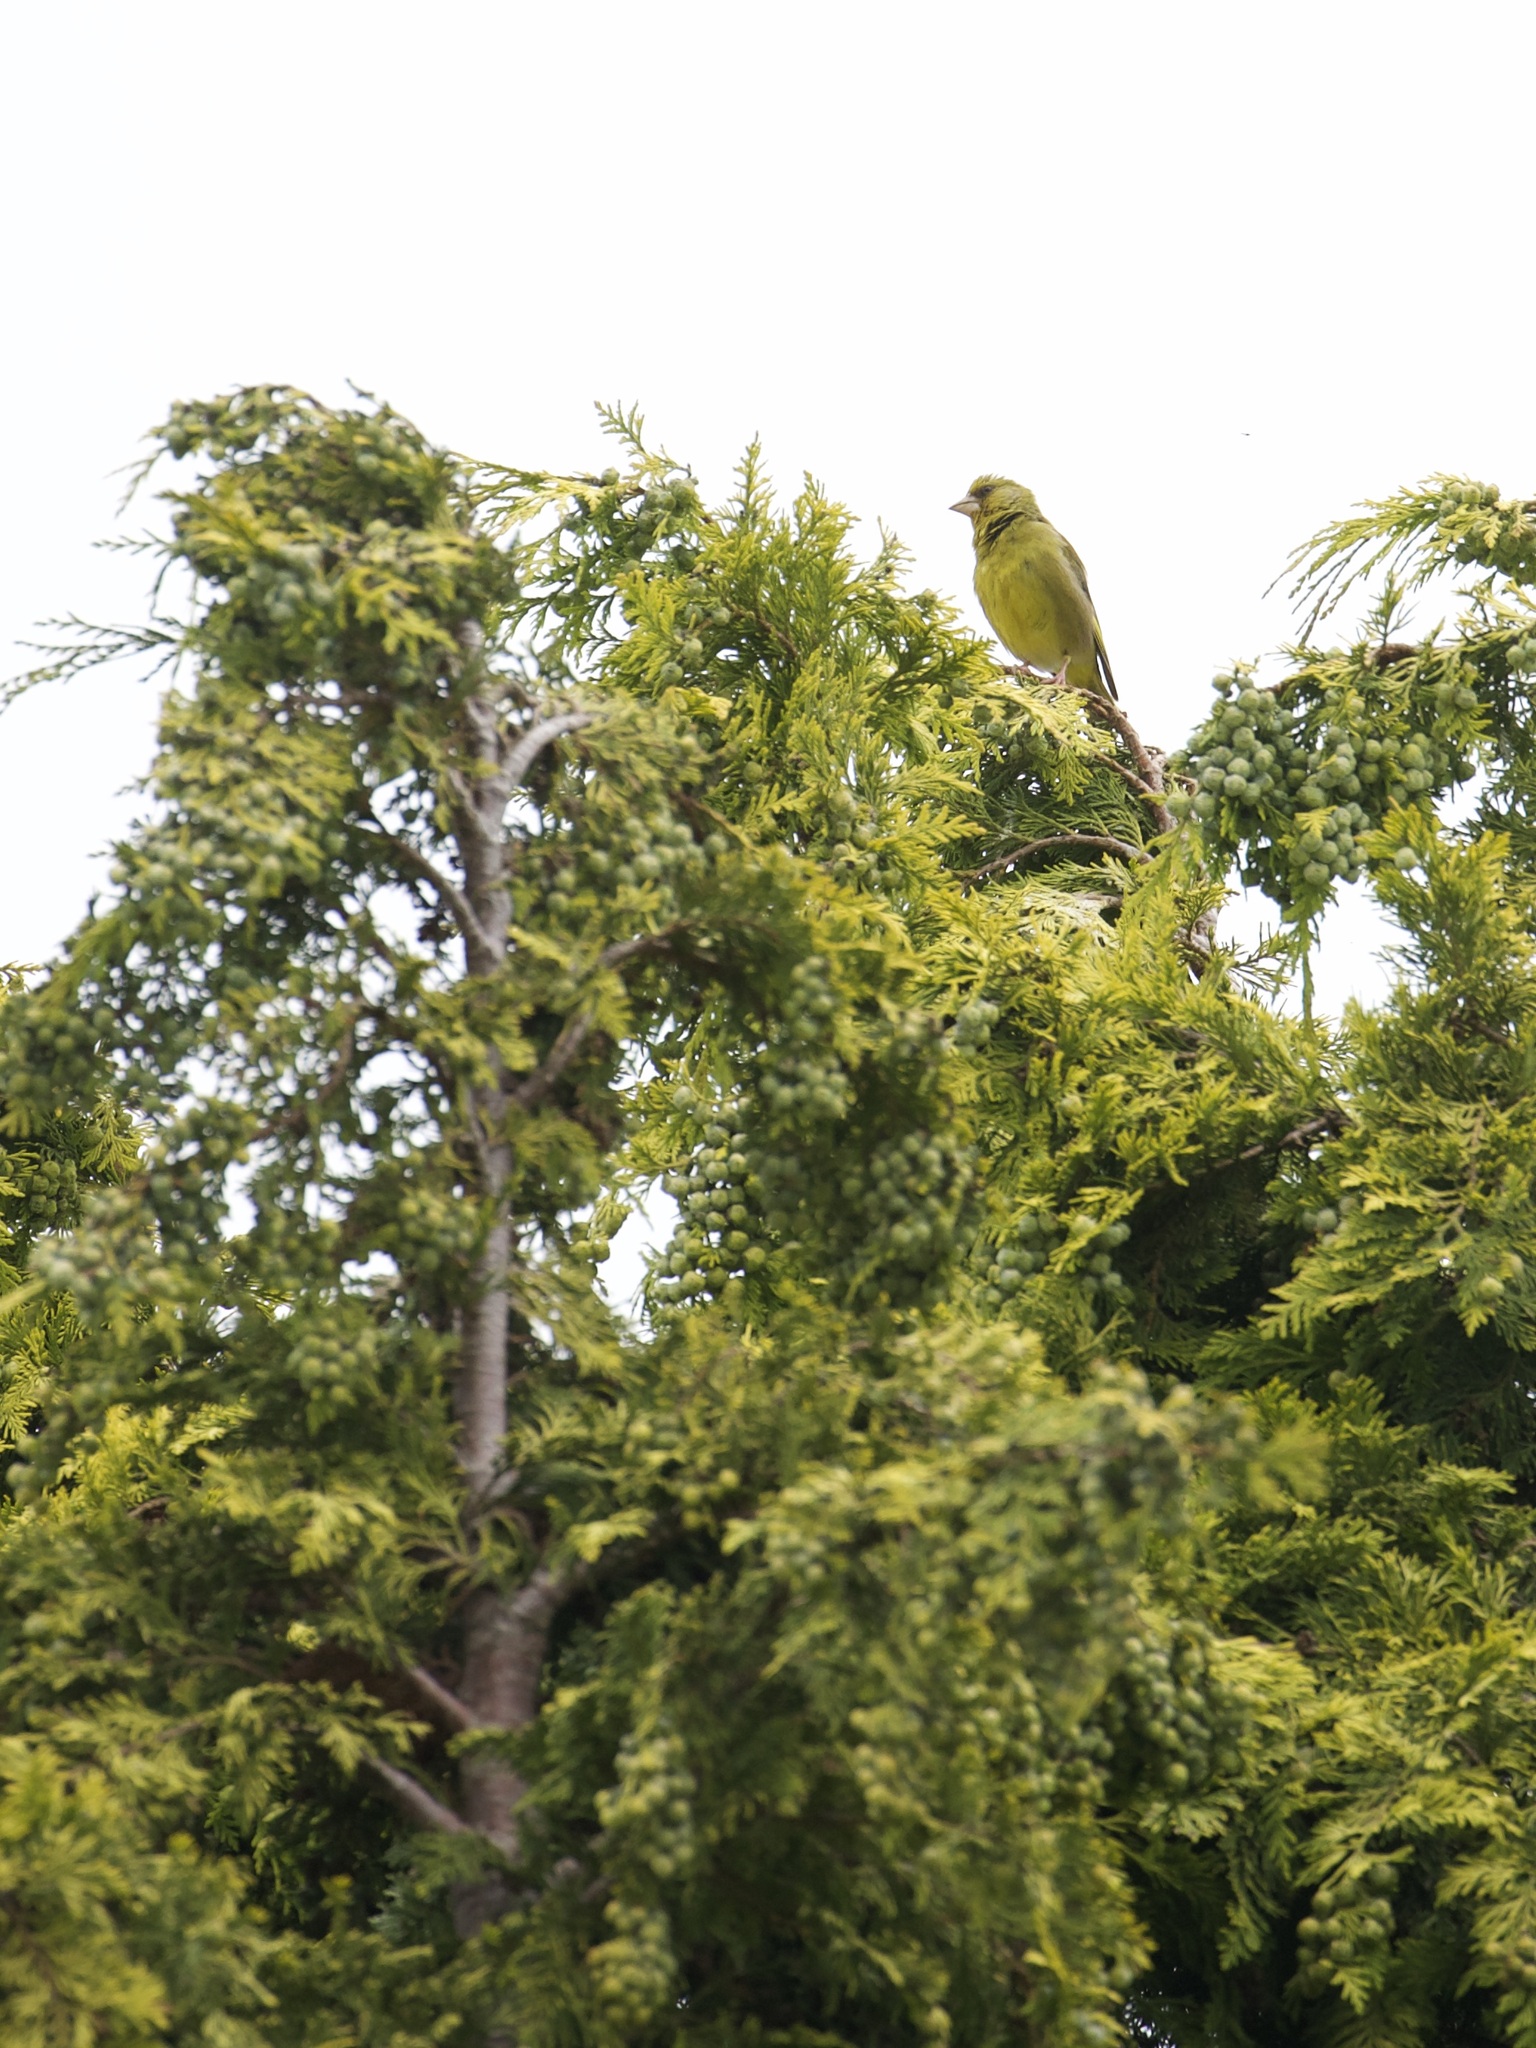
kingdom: Plantae
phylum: Tracheophyta
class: Liliopsida
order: Poales
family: Poaceae
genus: Chloris
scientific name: Chloris chloris
